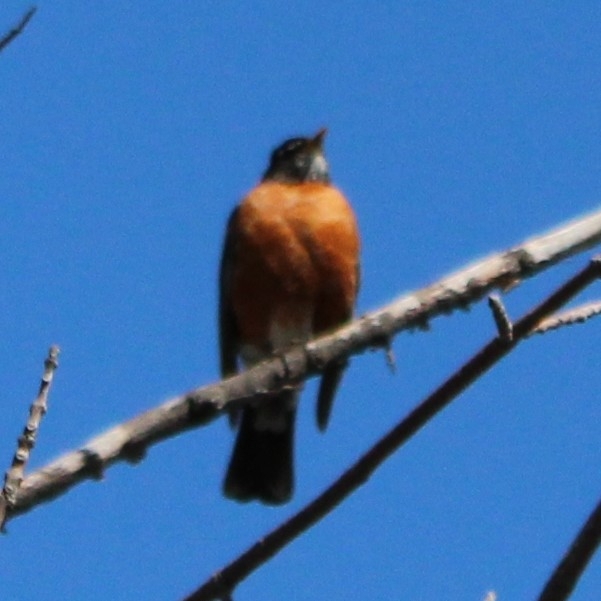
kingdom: Animalia
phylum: Chordata
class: Aves
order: Passeriformes
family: Turdidae
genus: Turdus
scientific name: Turdus migratorius
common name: American robin
